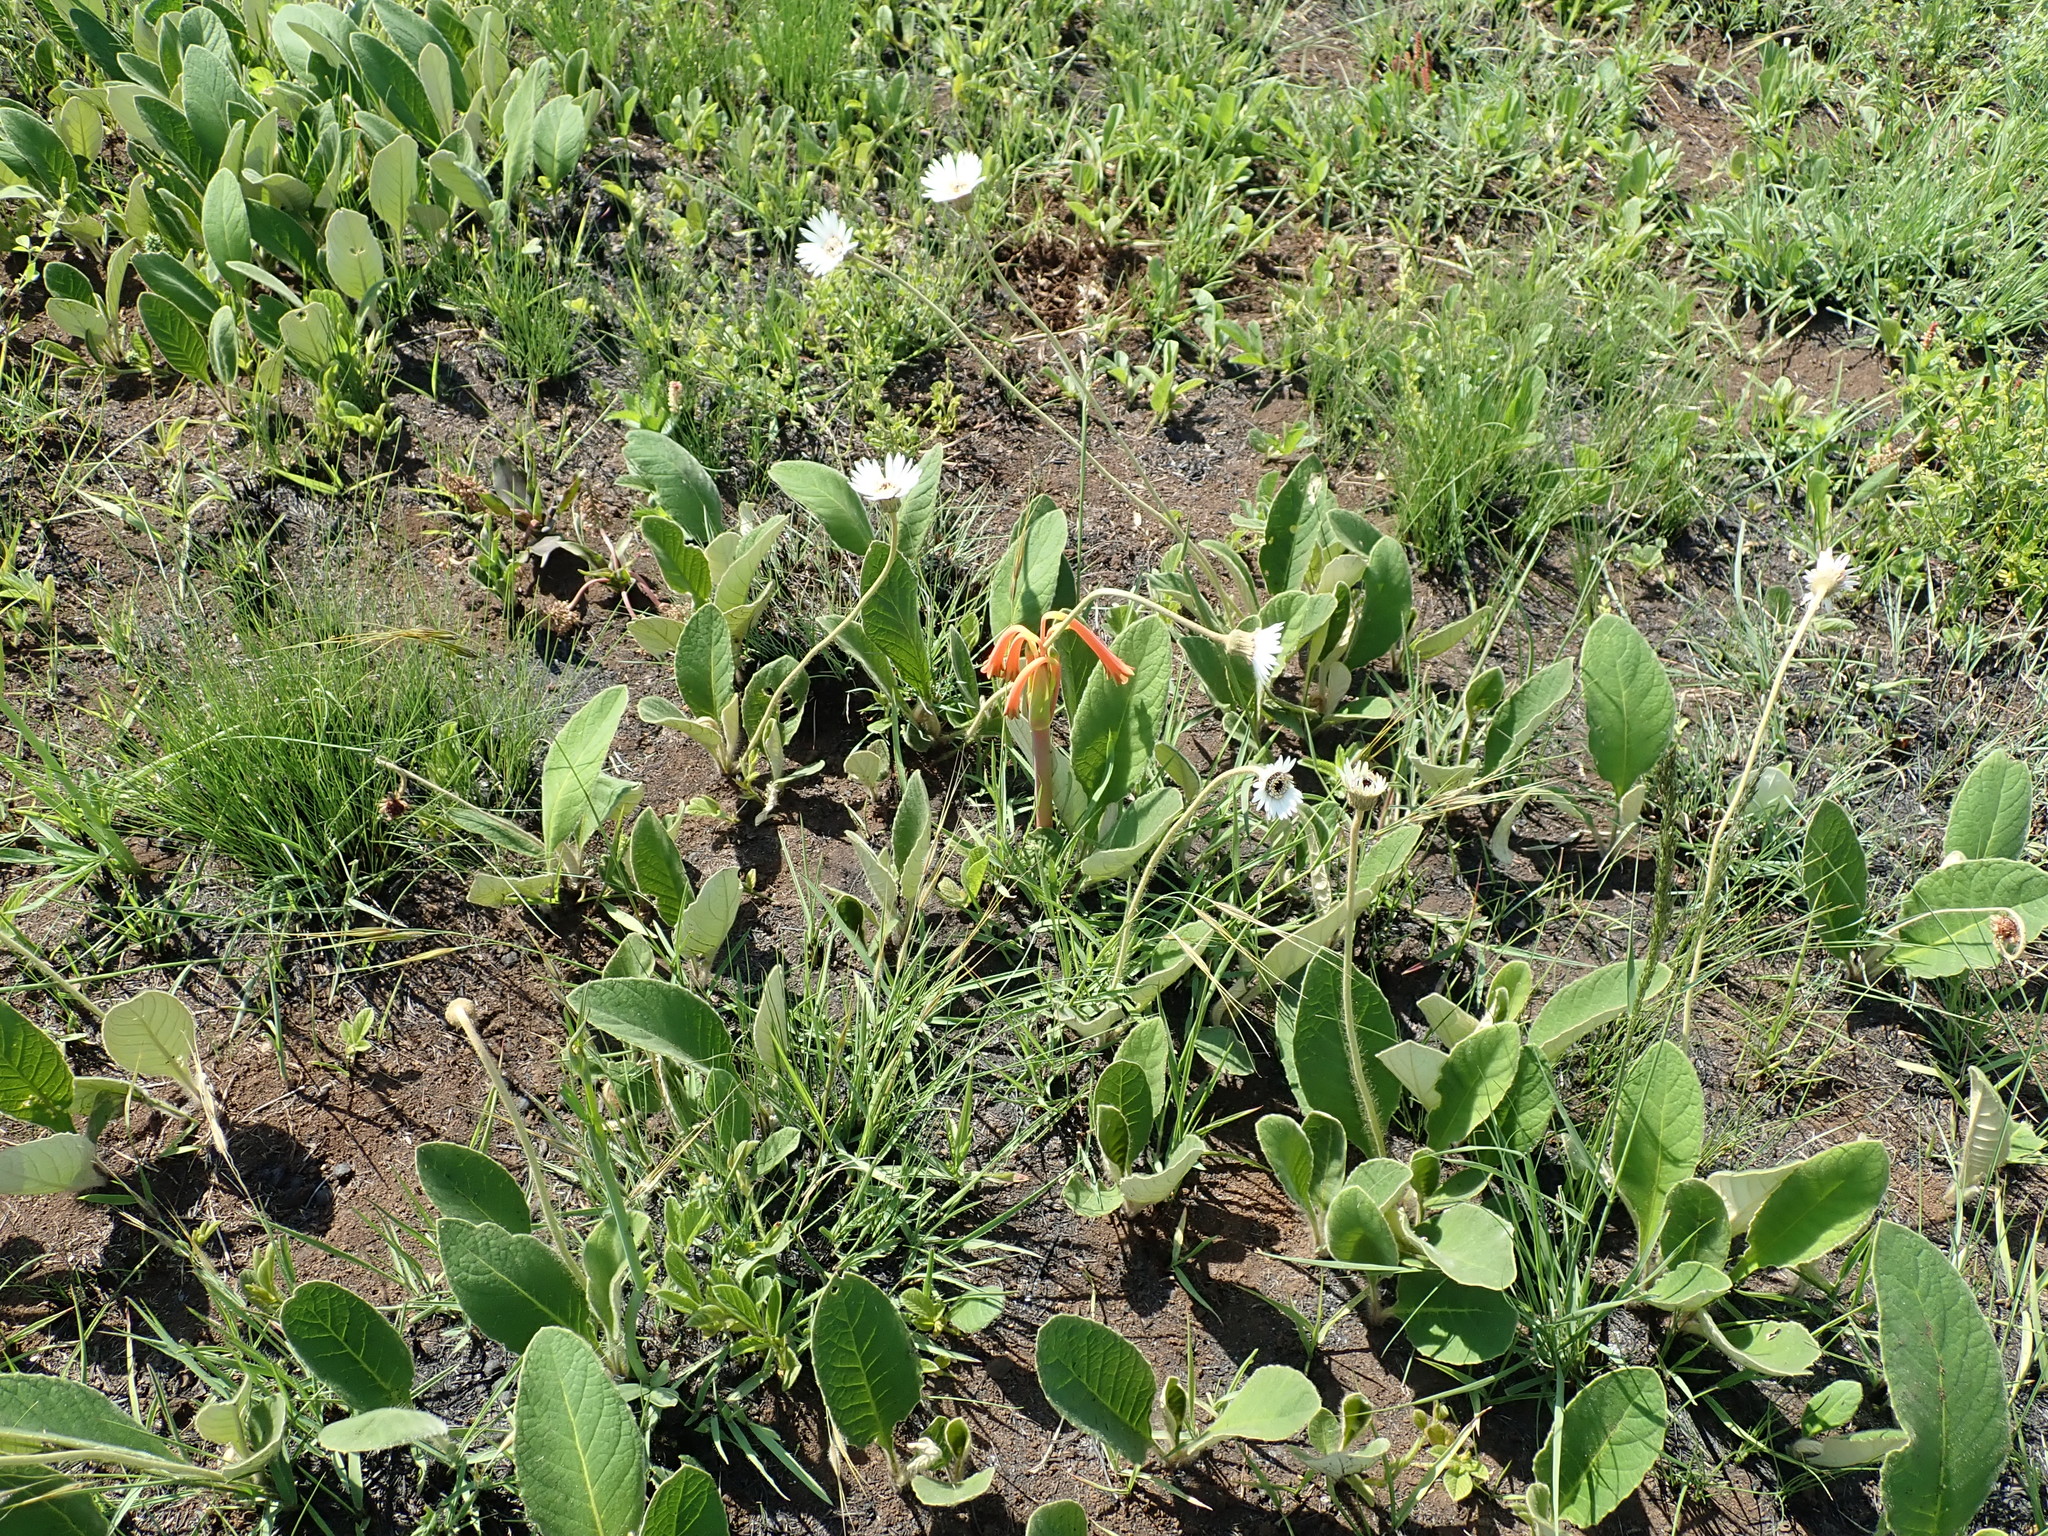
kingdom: Plantae
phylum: Tracheophyta
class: Magnoliopsida
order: Asterales
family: Asteraceae
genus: Gerbera
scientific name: Gerbera ambigua
